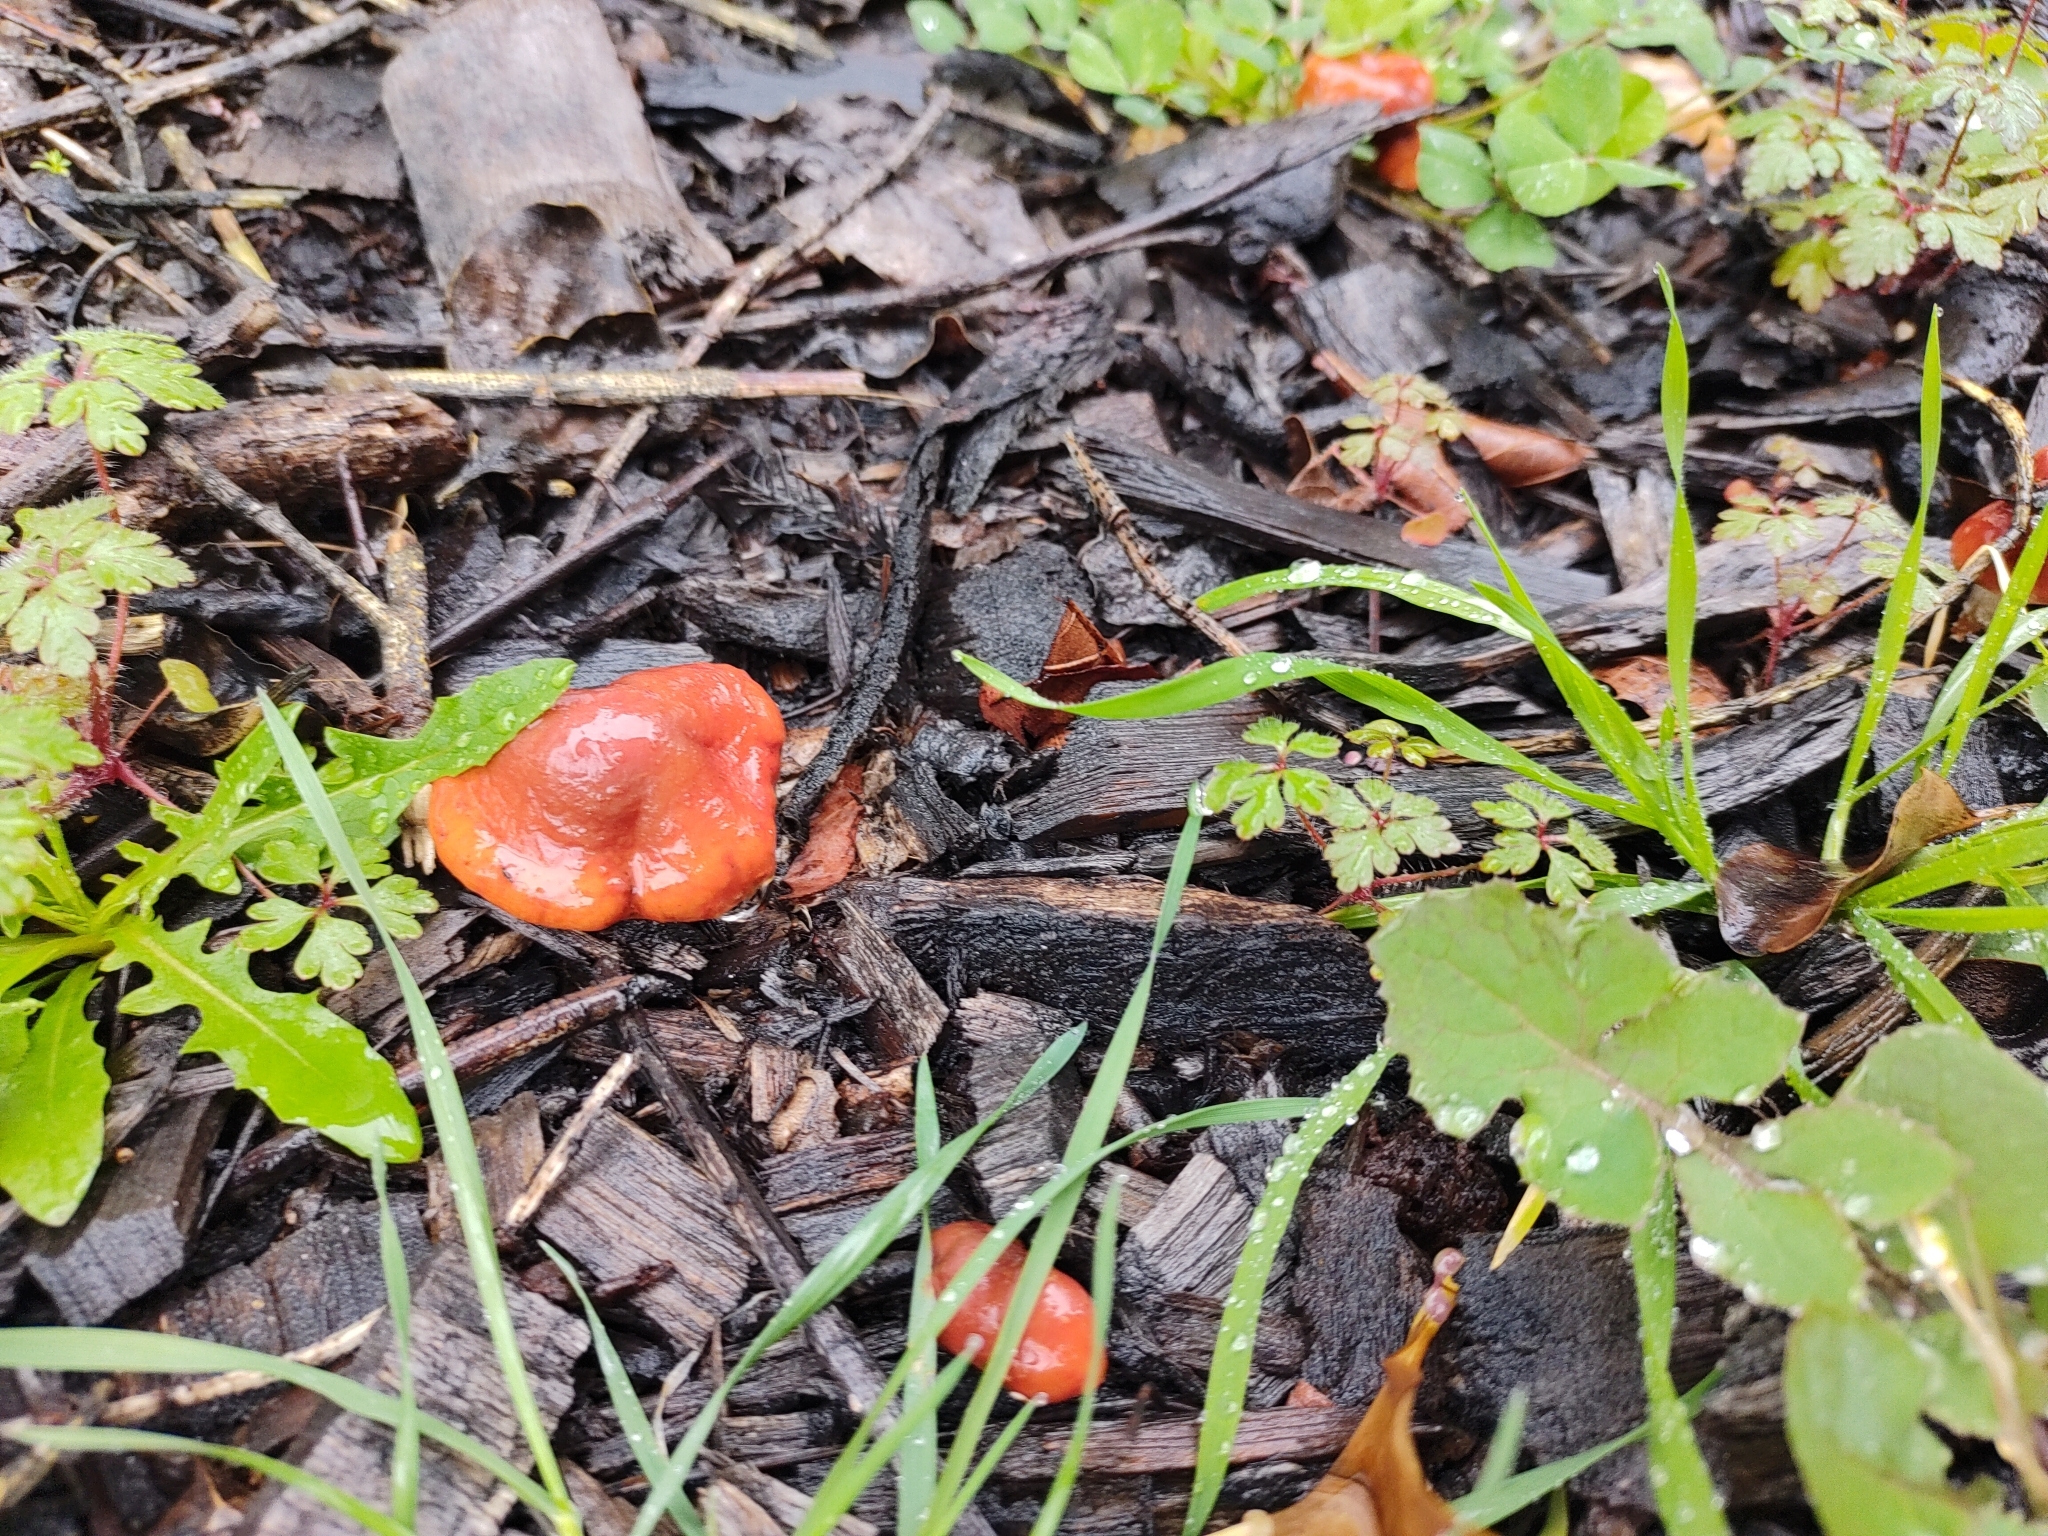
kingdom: Fungi
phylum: Basidiomycota
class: Agaricomycetes
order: Agaricales
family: Strophariaceae
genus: Leratiomyces
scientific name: Leratiomyces ceres
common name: Redlead roundhead
